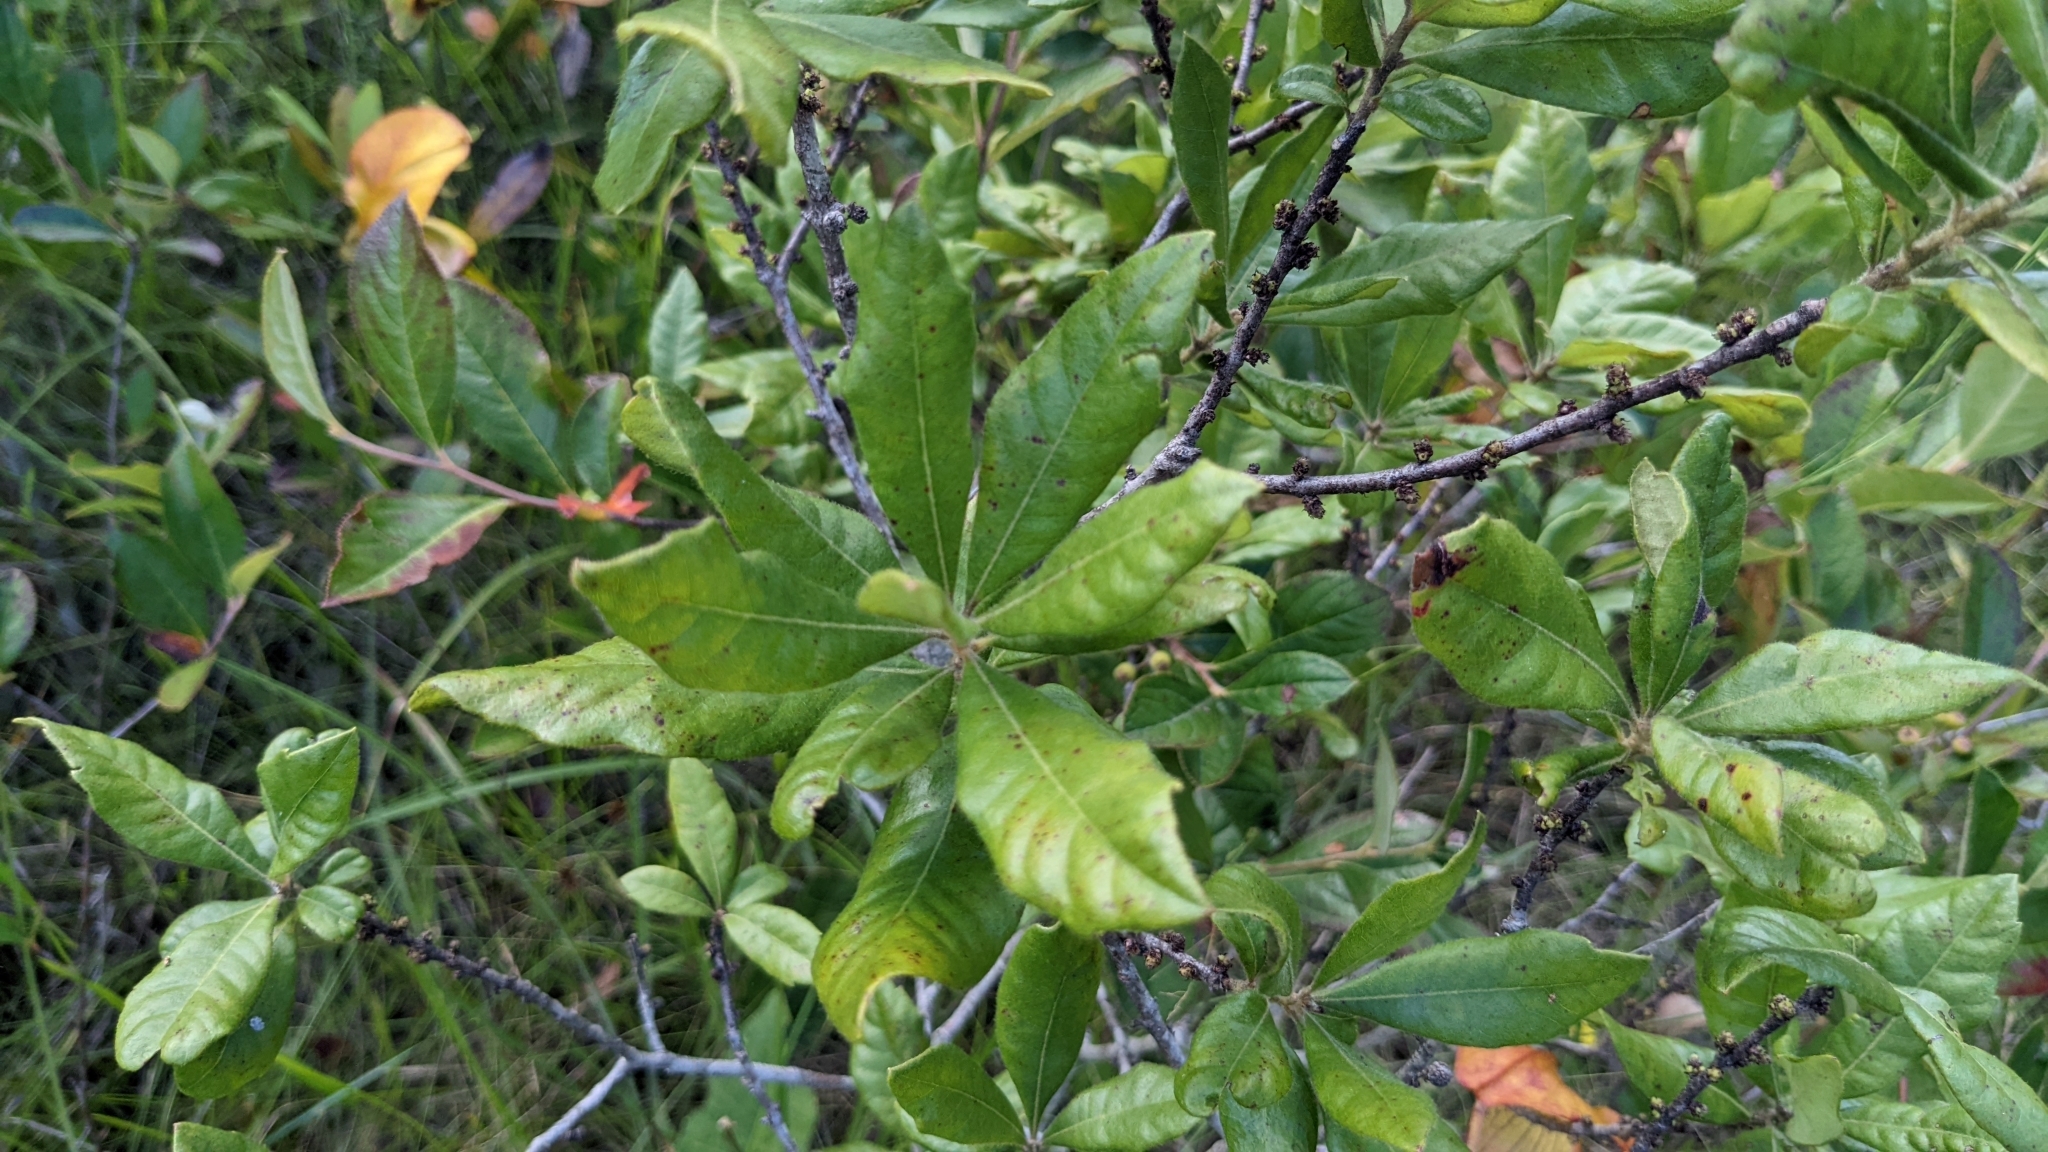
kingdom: Plantae
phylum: Tracheophyta
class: Magnoliopsida
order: Fagales
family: Myricaceae
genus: Morella
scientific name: Morella caroliniensis
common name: Evergreen bayberry
